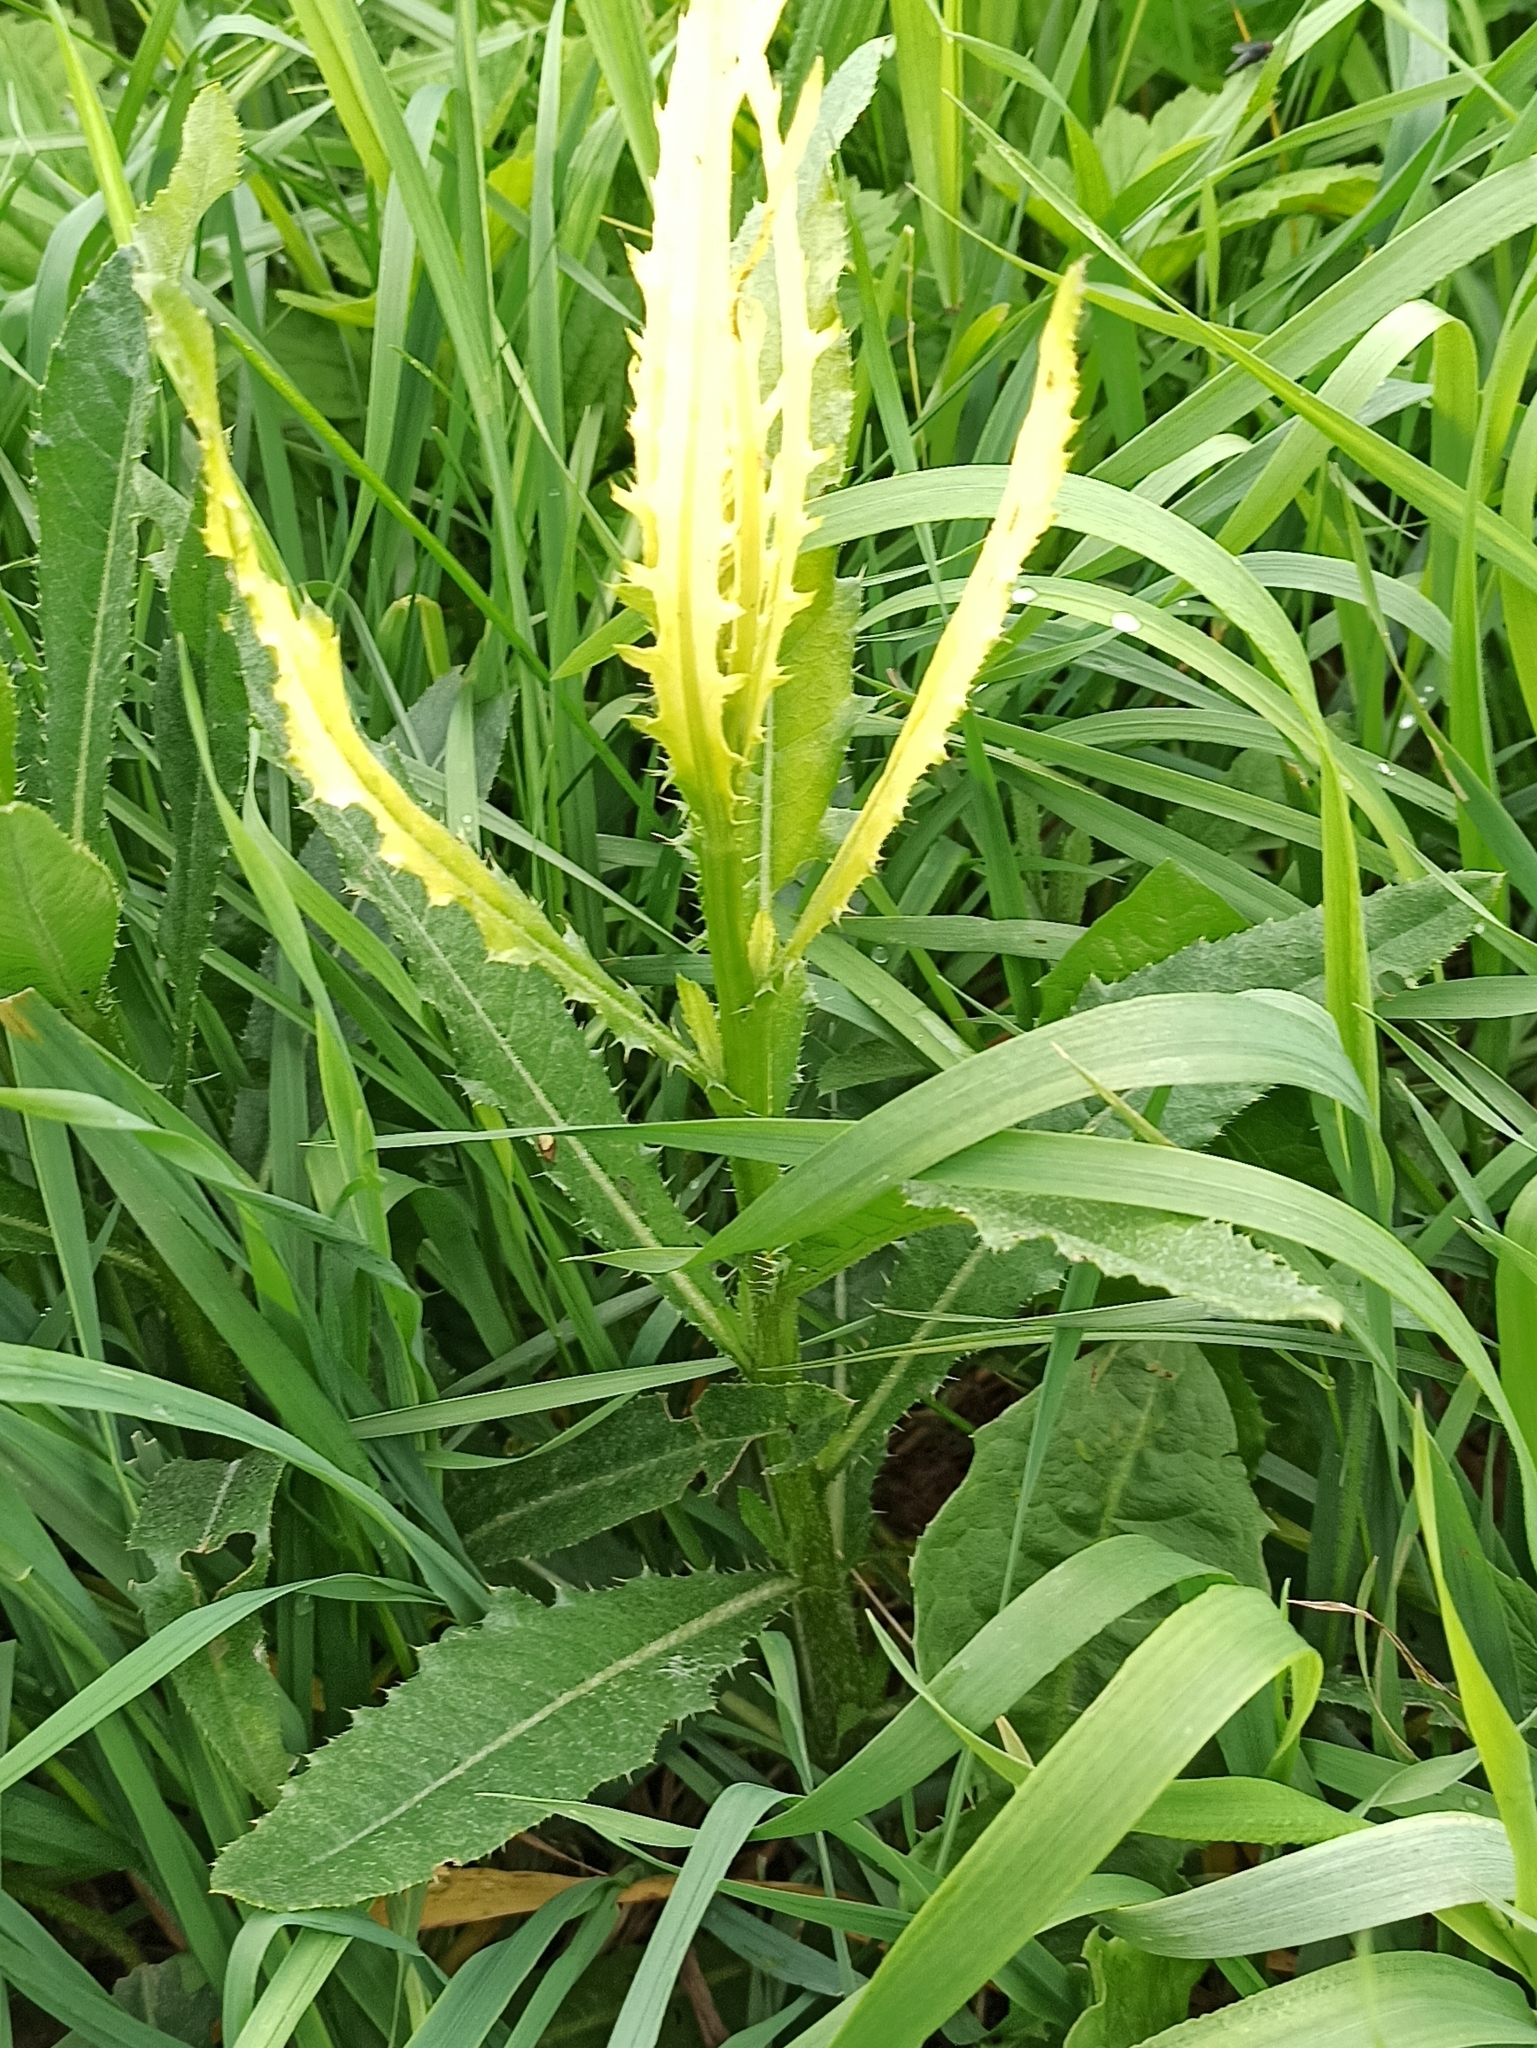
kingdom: Plantae
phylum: Tracheophyta
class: Magnoliopsida
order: Asterales
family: Asteraceae
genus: Cirsium
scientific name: Cirsium arvense
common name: Creeping thistle
